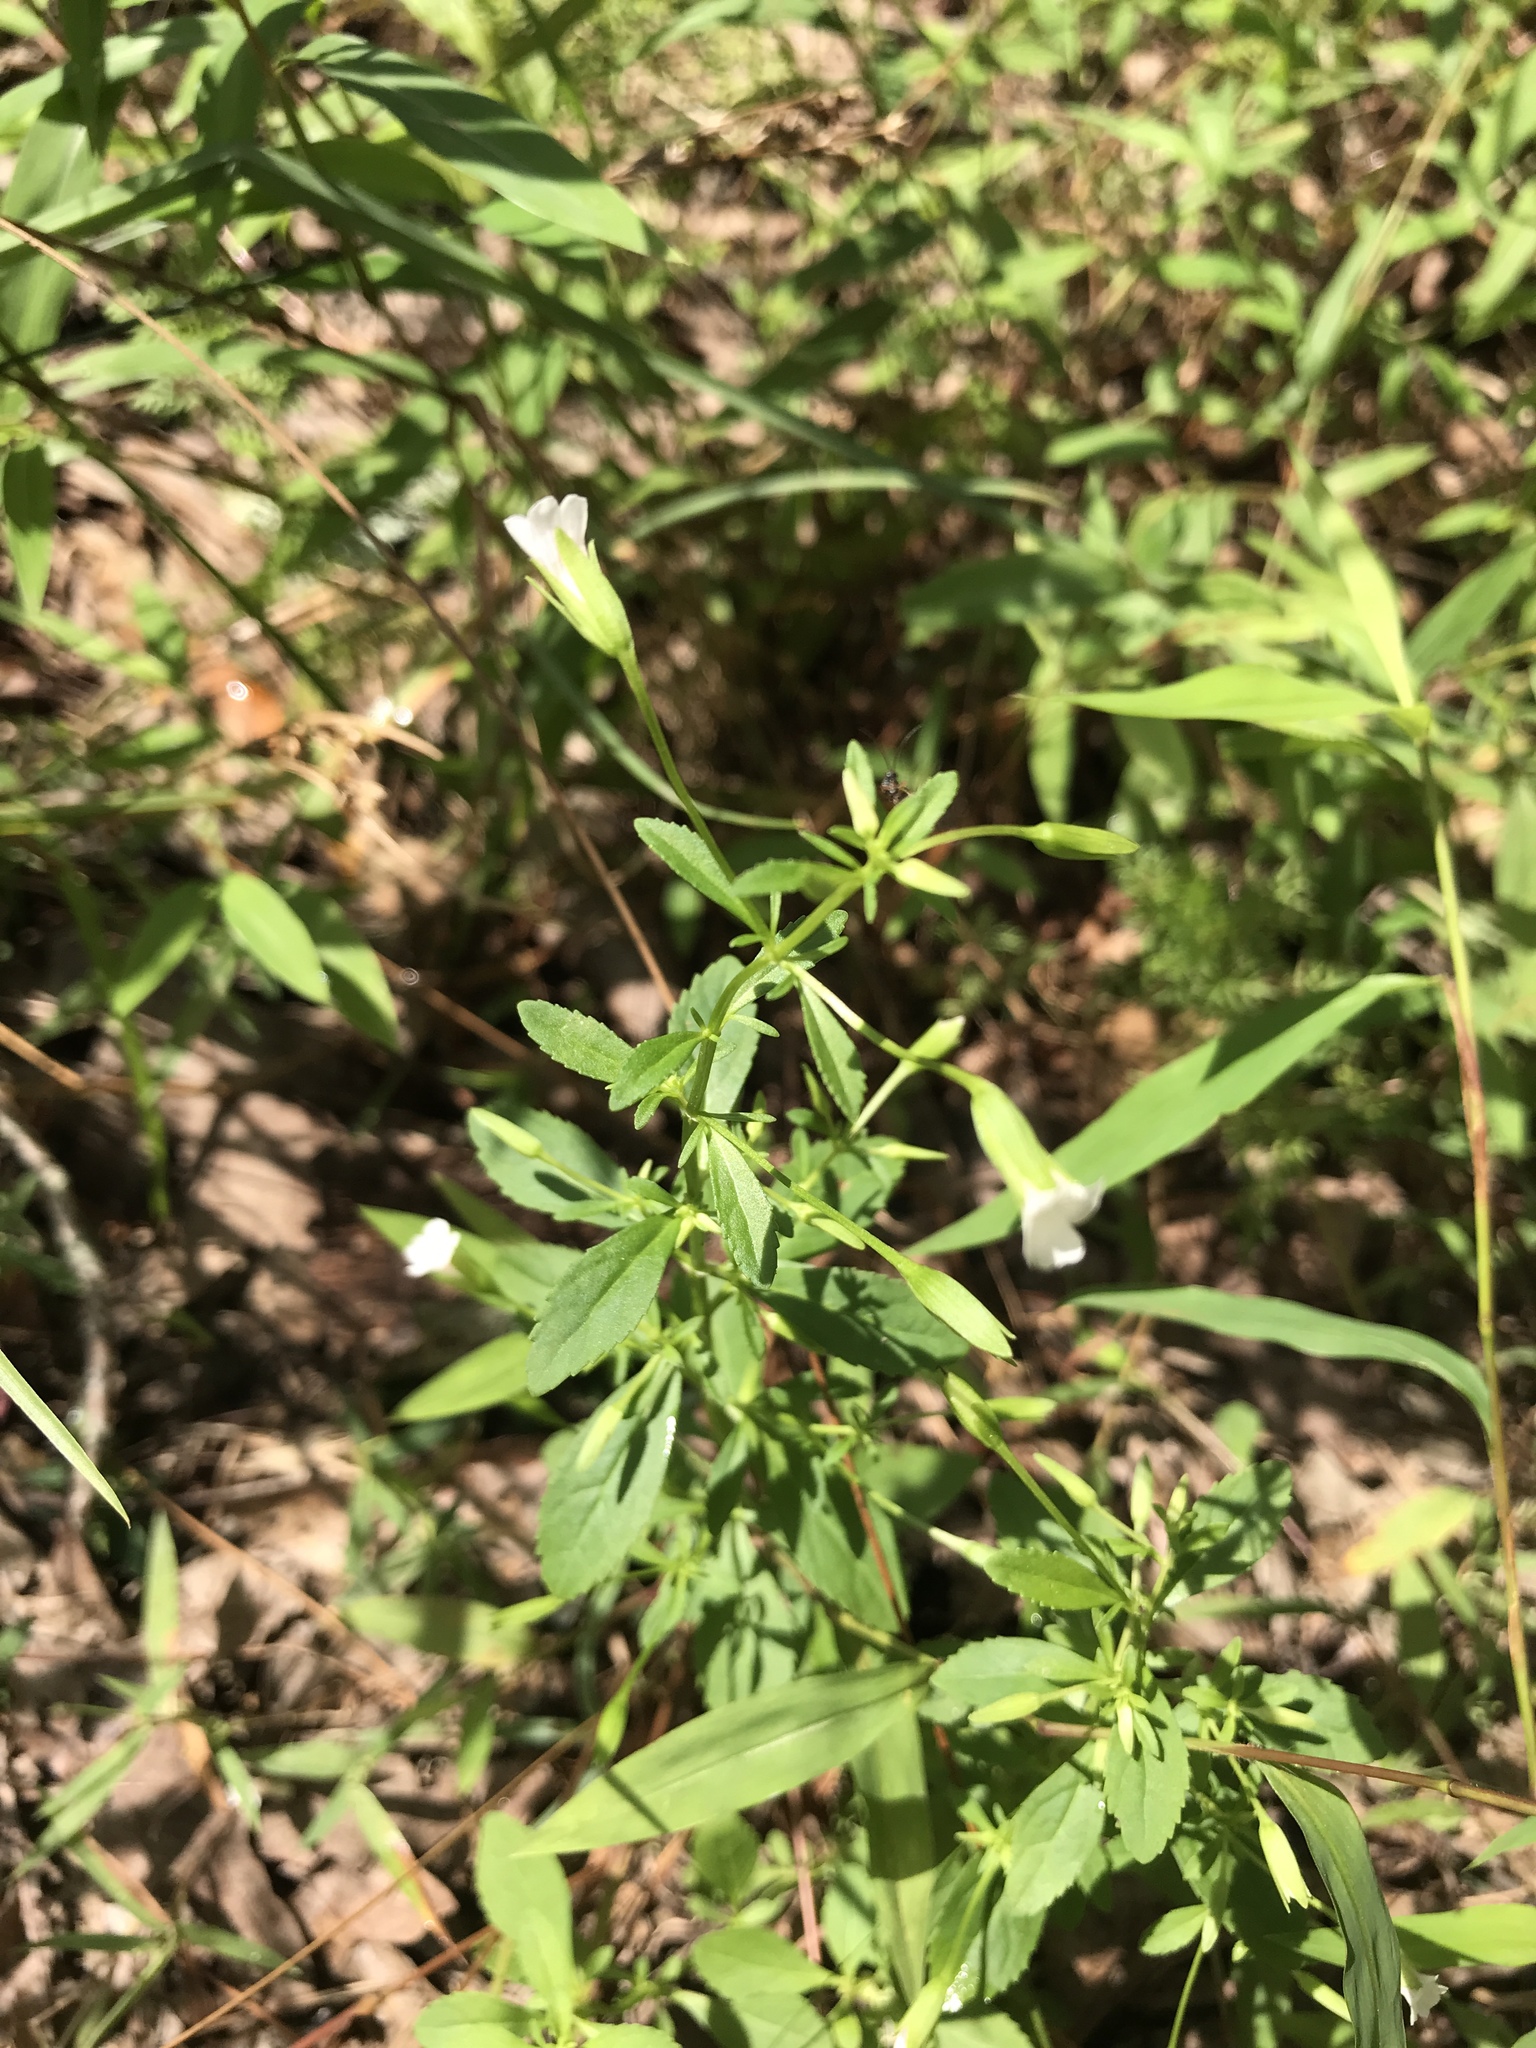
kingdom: Plantae
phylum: Tracheophyta
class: Magnoliopsida
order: Lamiales
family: Plantaginaceae
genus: Mecardonia
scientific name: Mecardonia acuminata
